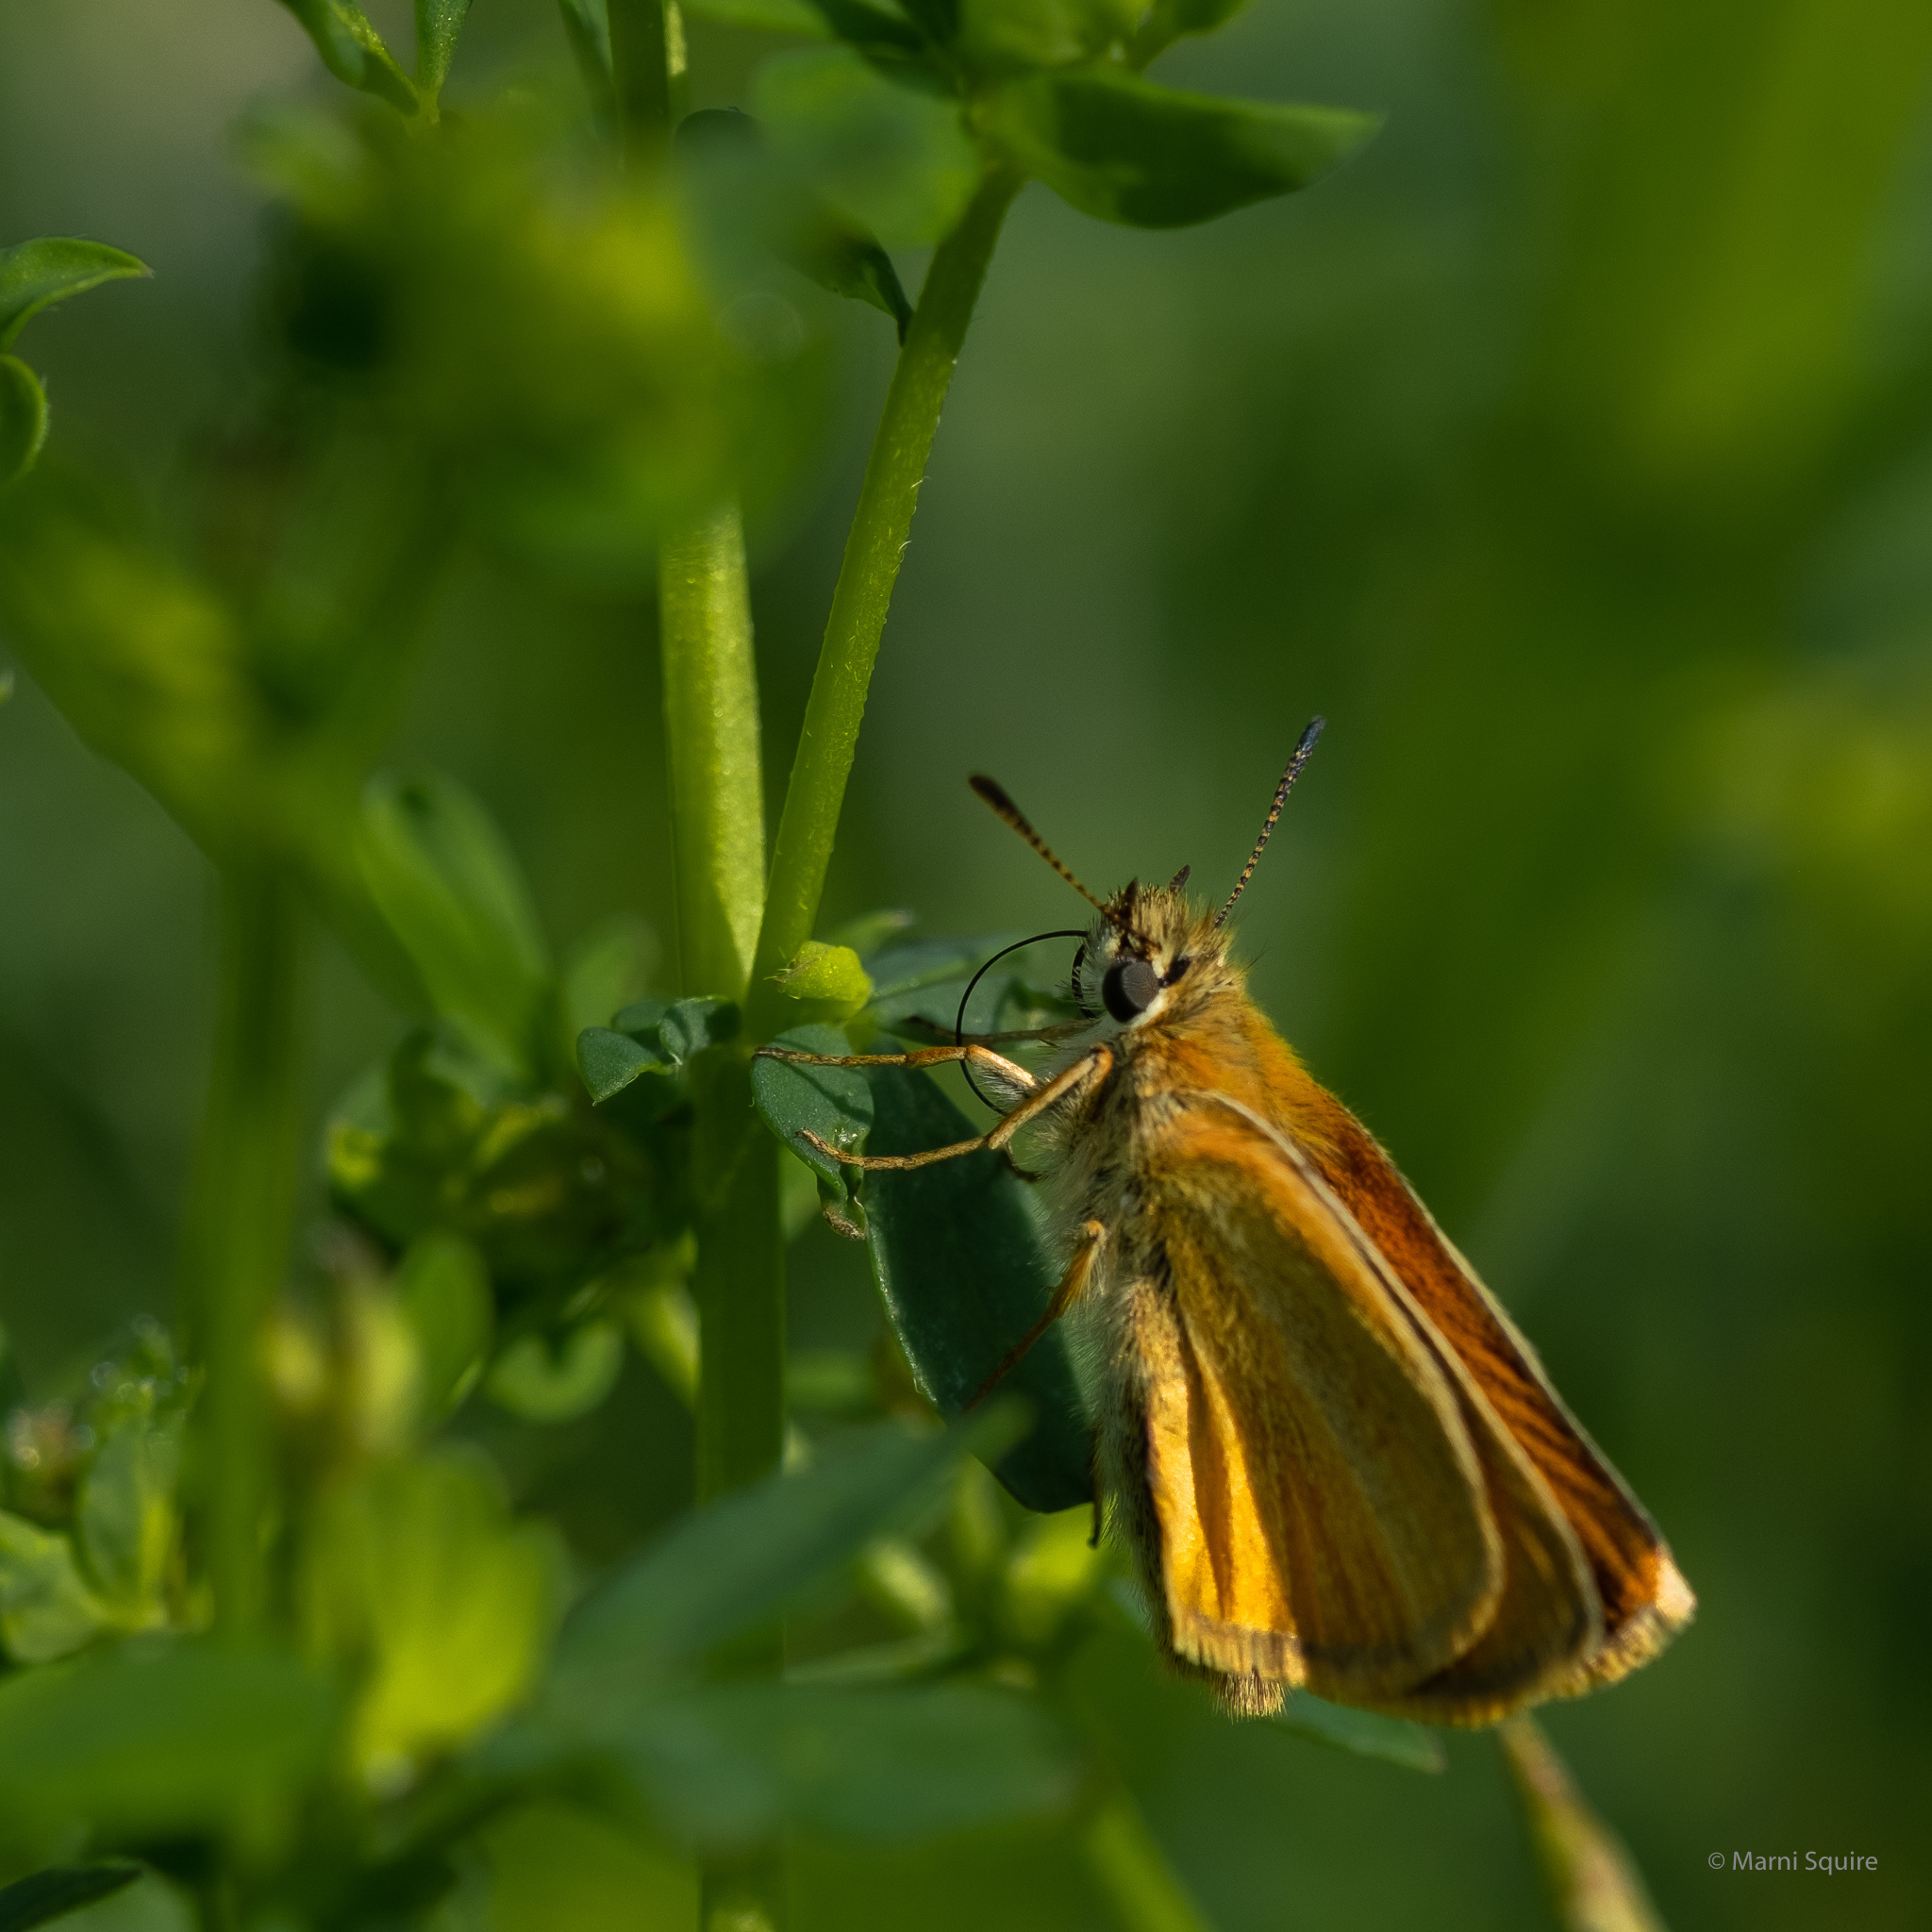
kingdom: Animalia
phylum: Arthropoda
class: Insecta
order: Lepidoptera
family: Hesperiidae
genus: Thymelicus
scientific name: Thymelicus lineola
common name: Essex skipper
